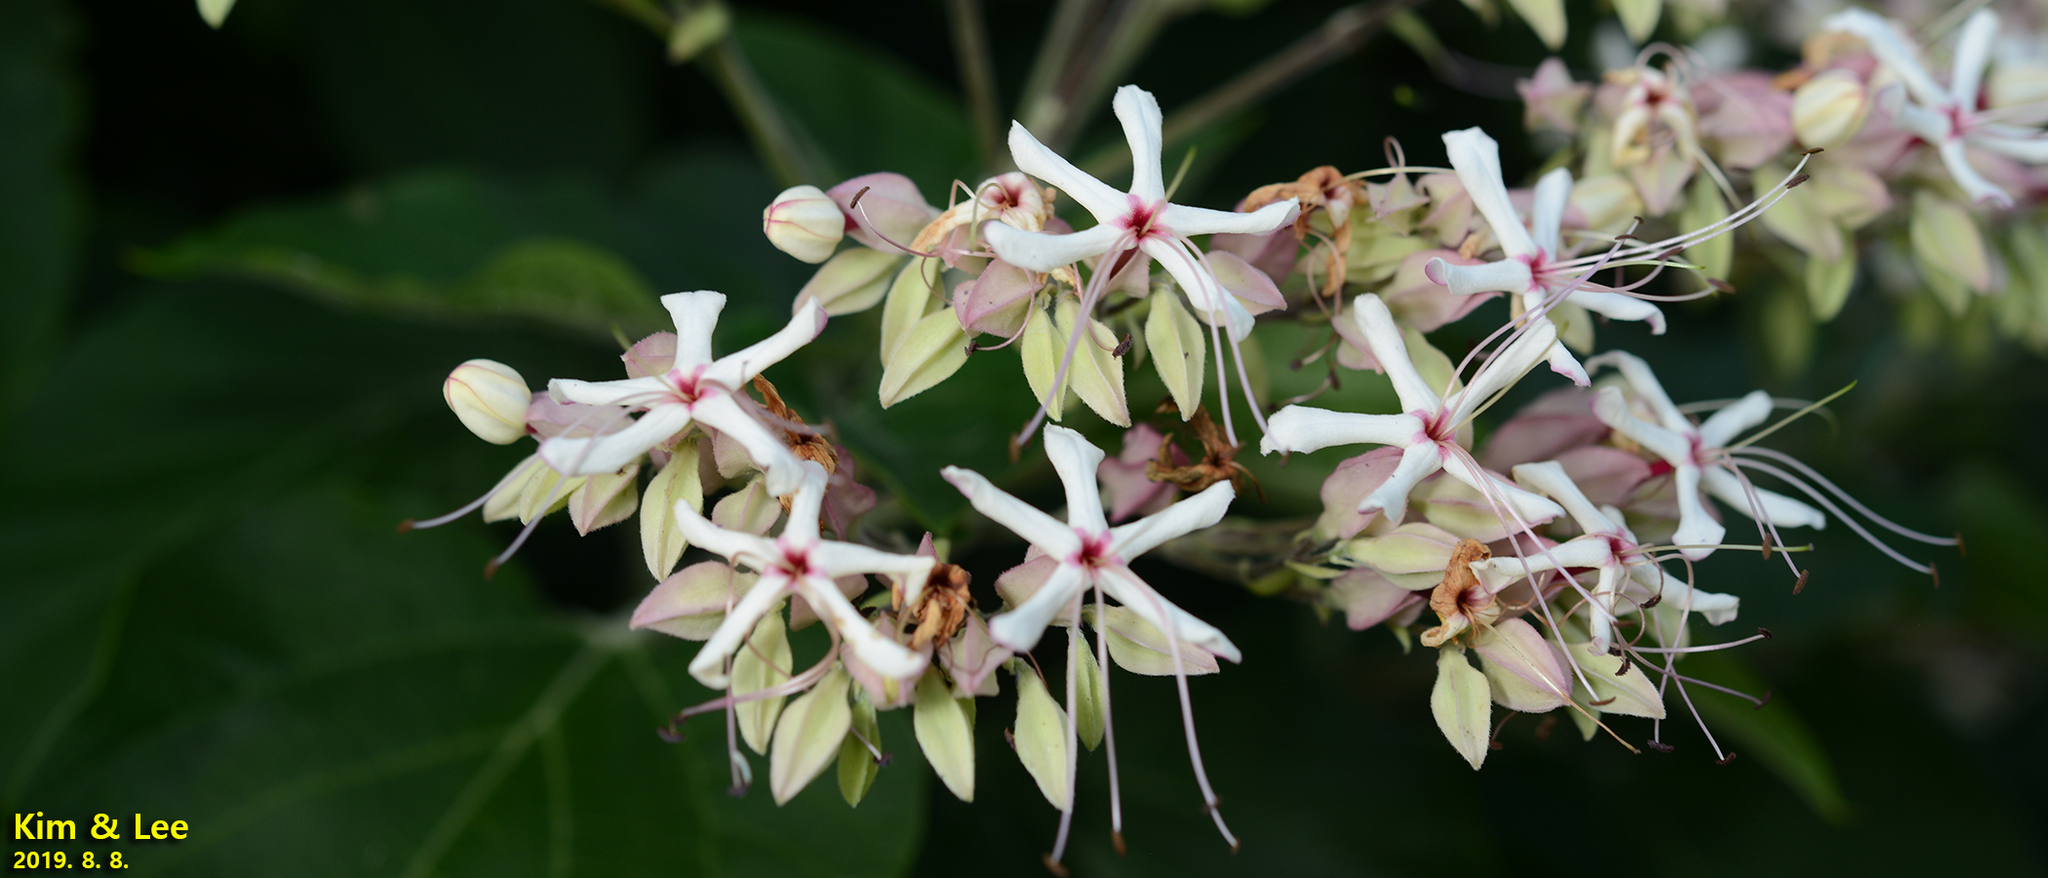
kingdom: Plantae
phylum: Tracheophyta
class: Magnoliopsida
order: Lamiales
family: Lamiaceae
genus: Clerodendrum
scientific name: Clerodendrum trichotomum
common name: Harlequin glorybower
